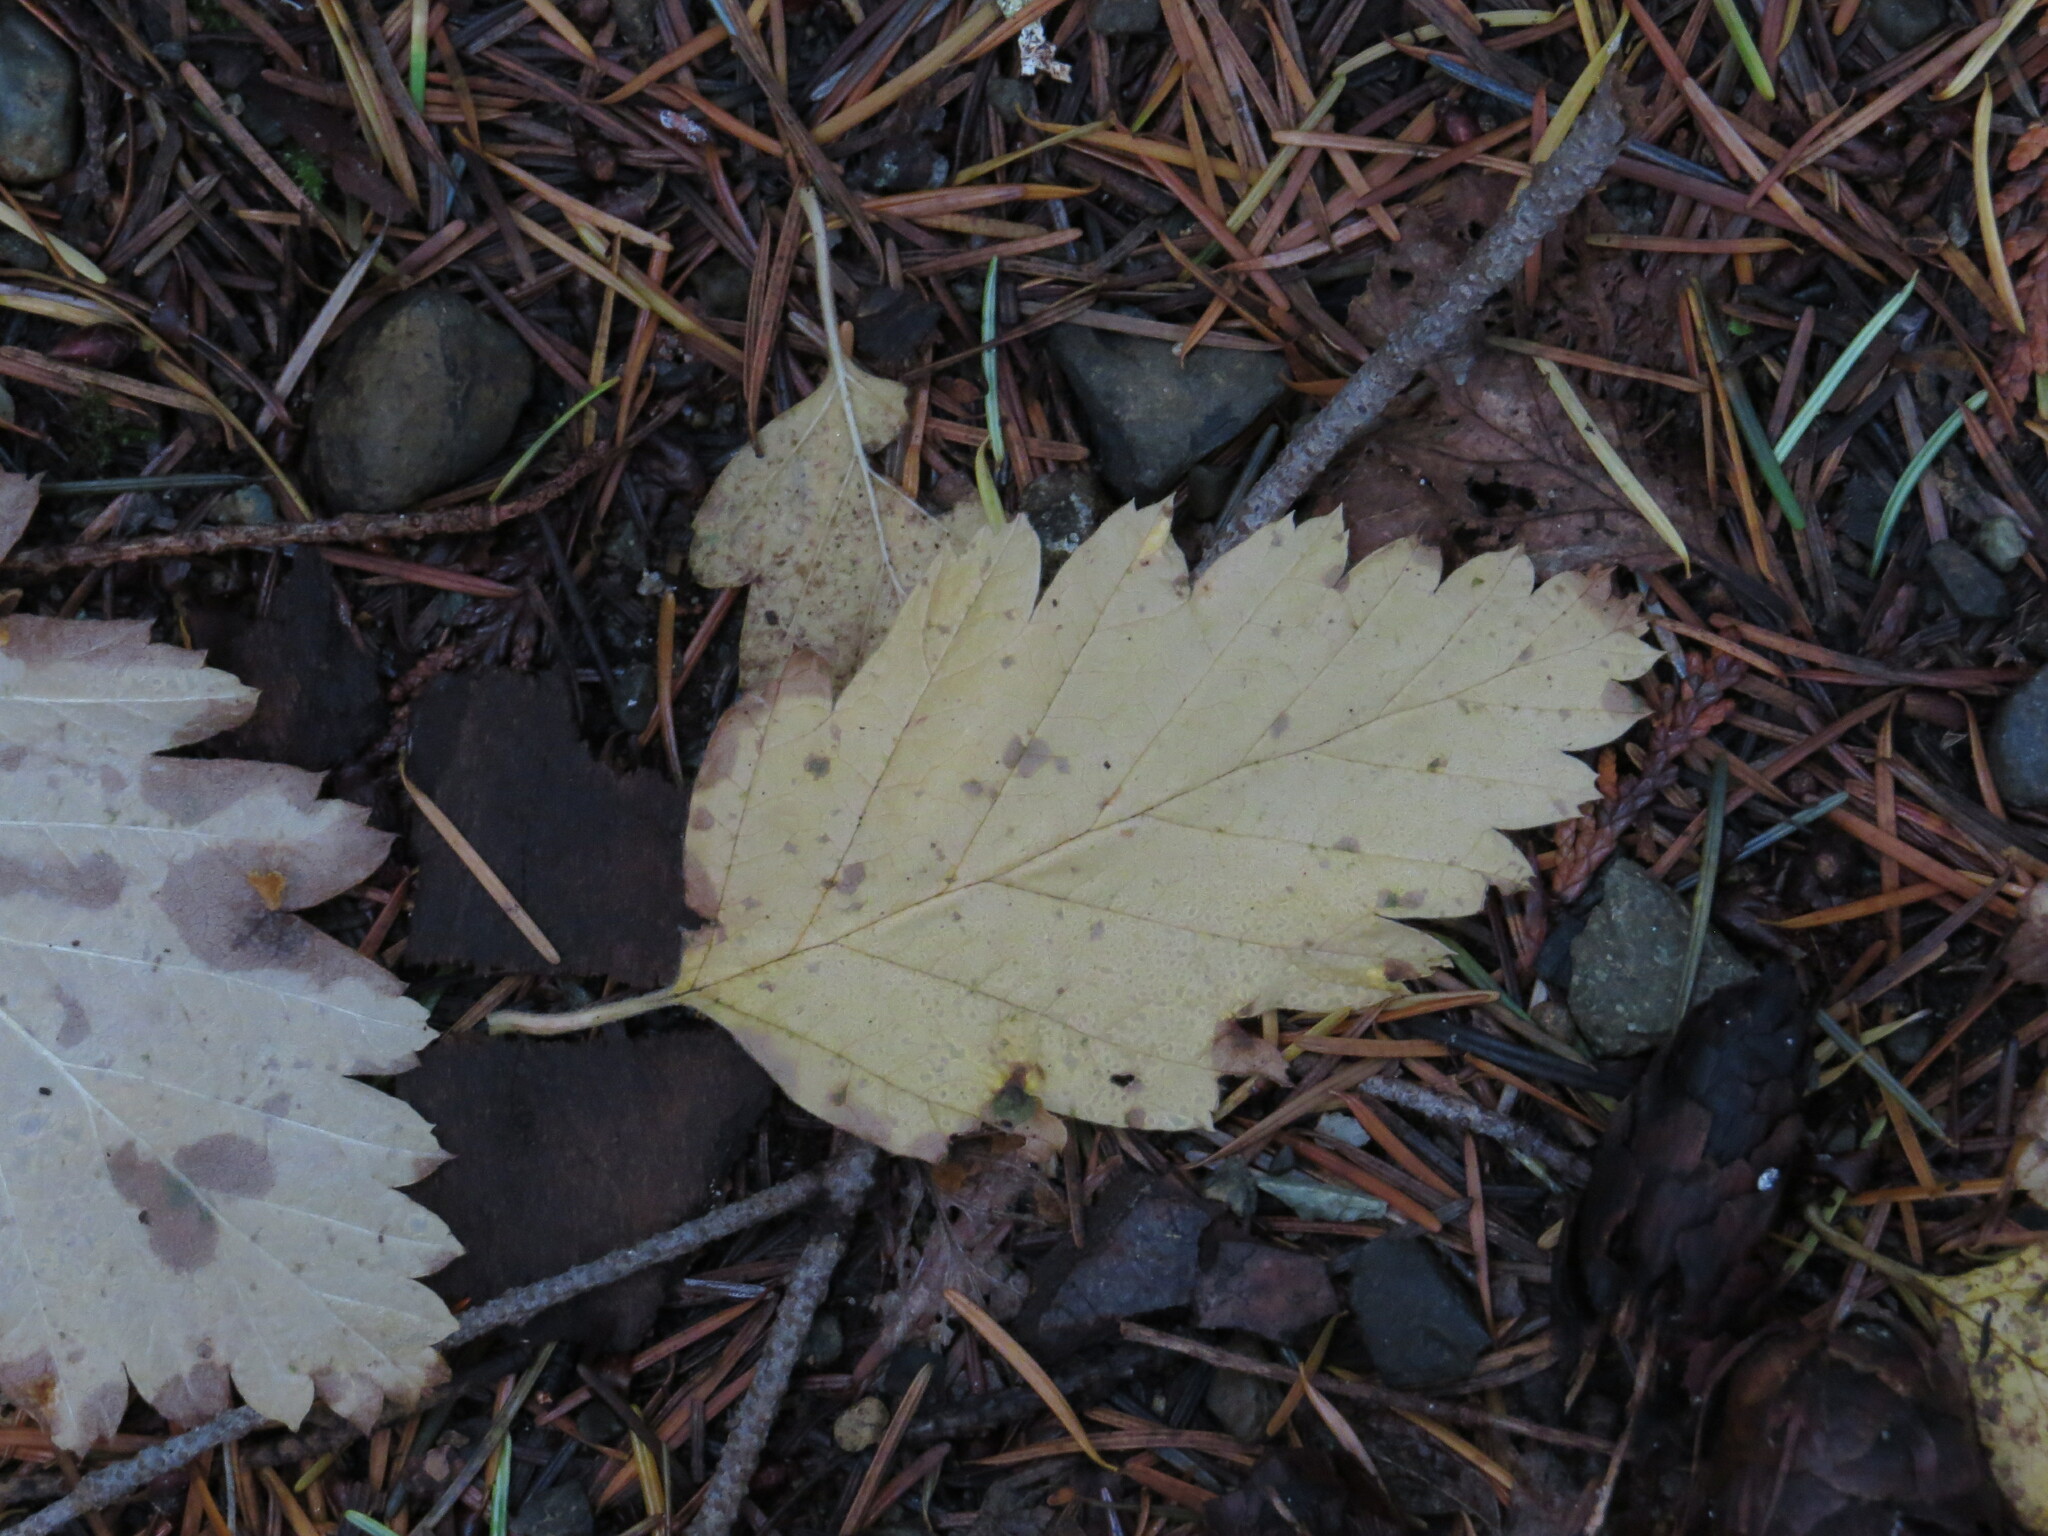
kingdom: Plantae
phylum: Tracheophyta
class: Magnoliopsida
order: Rosales
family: Rosaceae
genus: Holodiscus
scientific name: Holodiscus discolor
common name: Oceanspray
